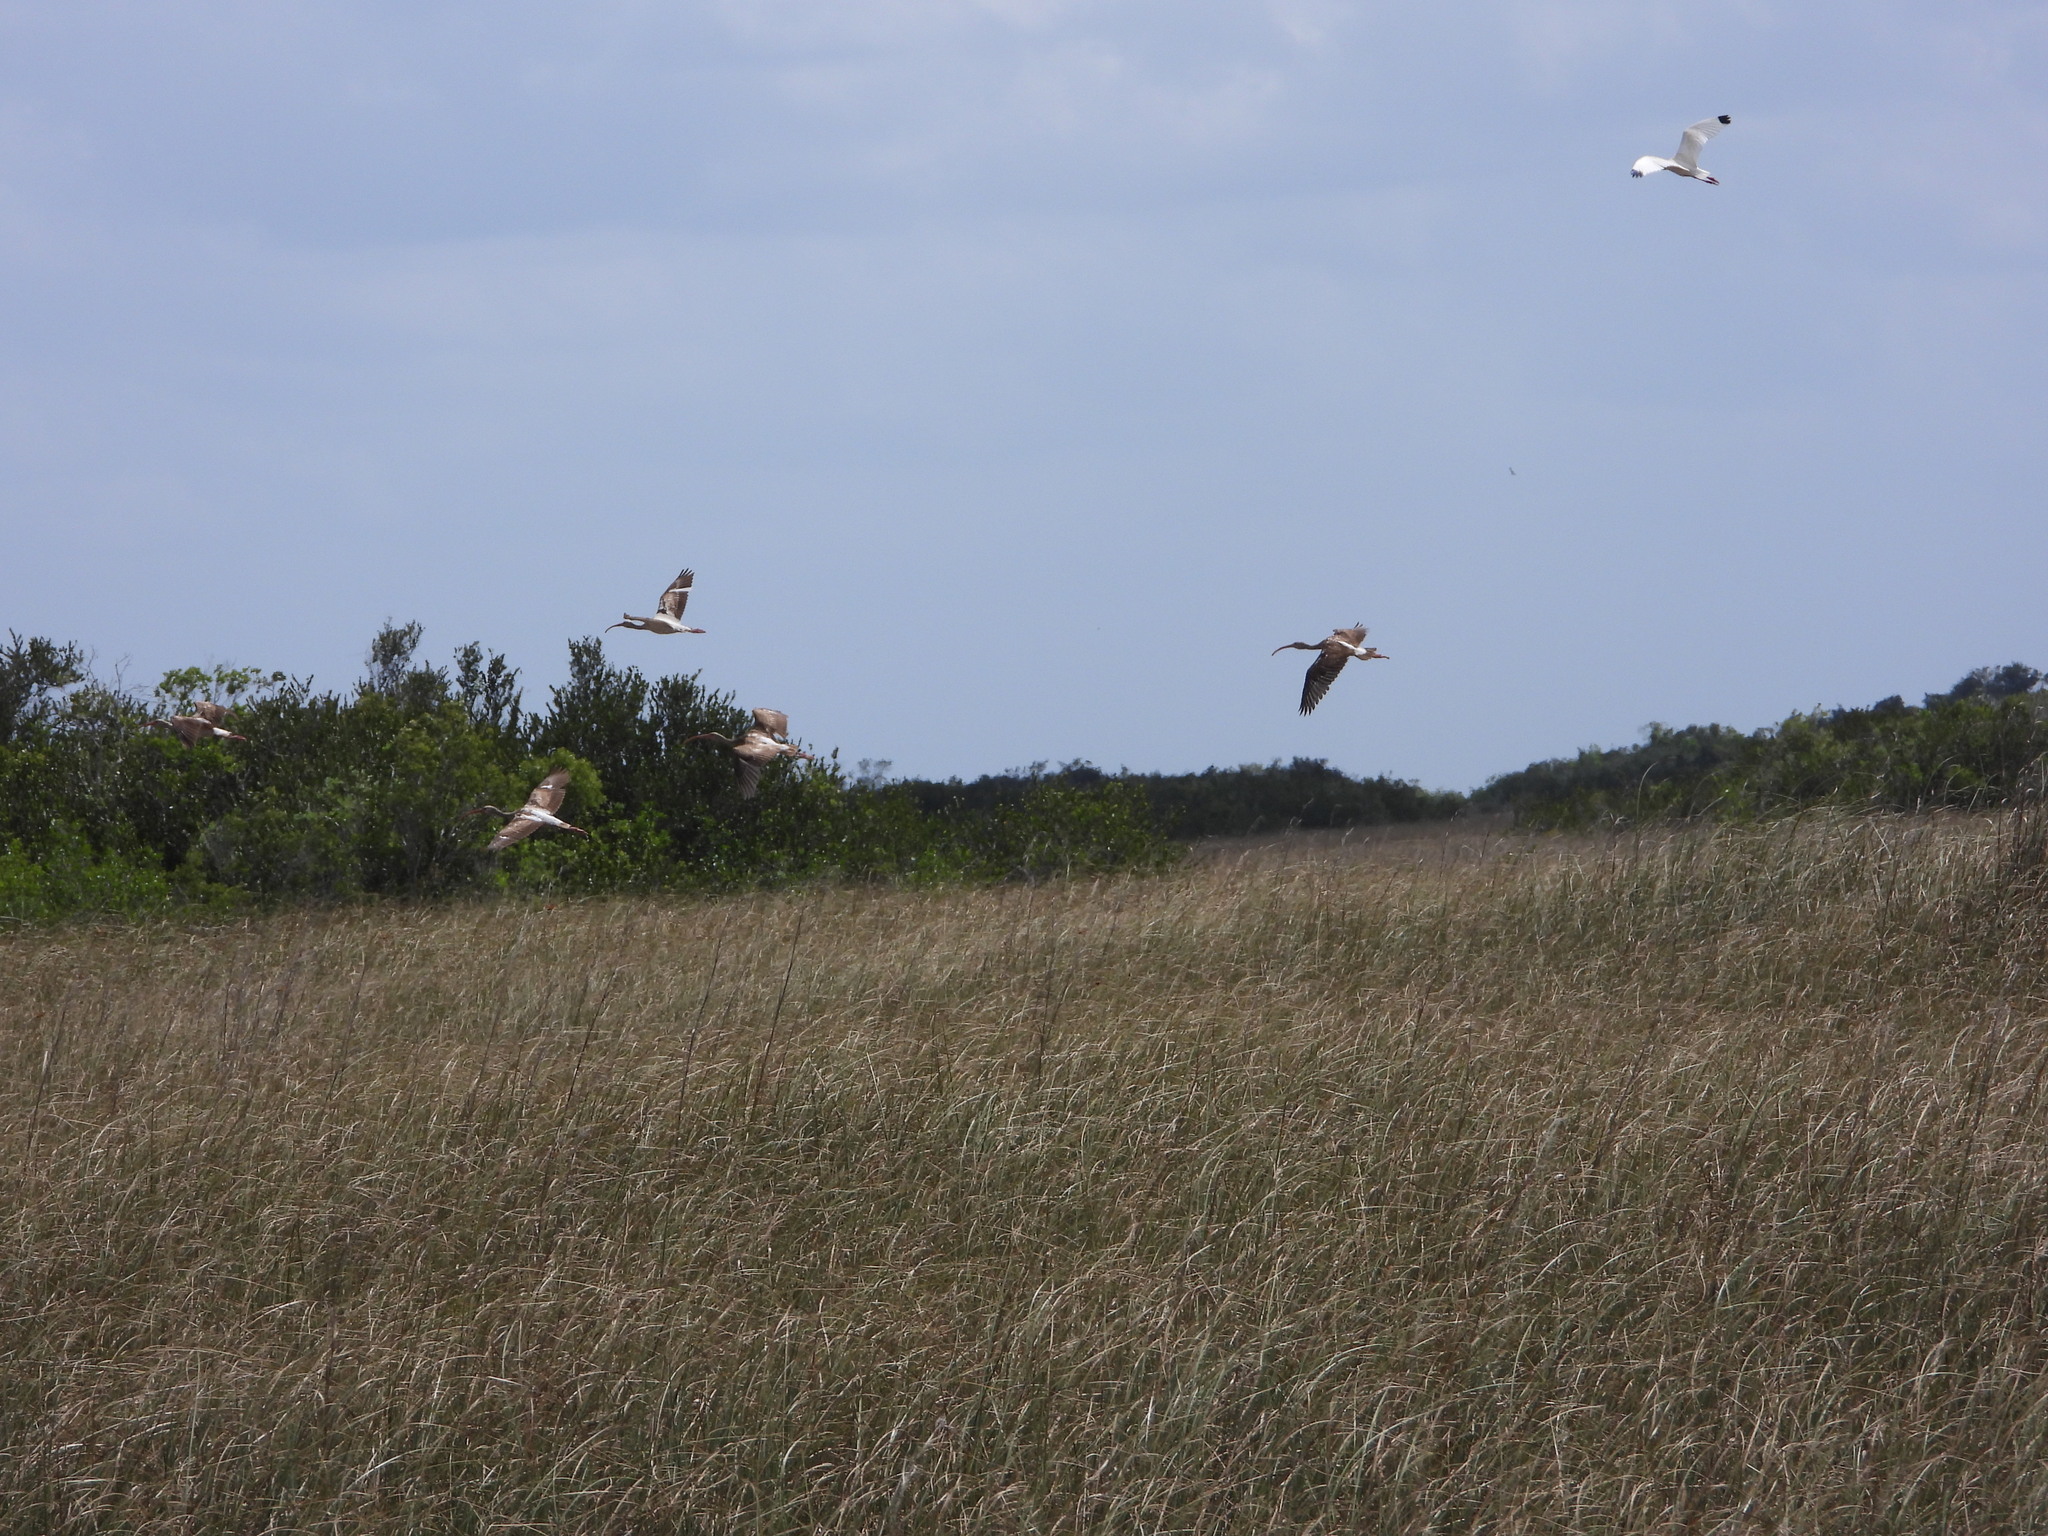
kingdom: Animalia
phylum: Chordata
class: Aves
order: Pelecaniformes
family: Threskiornithidae
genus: Eudocimus
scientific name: Eudocimus albus
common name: White ibis
